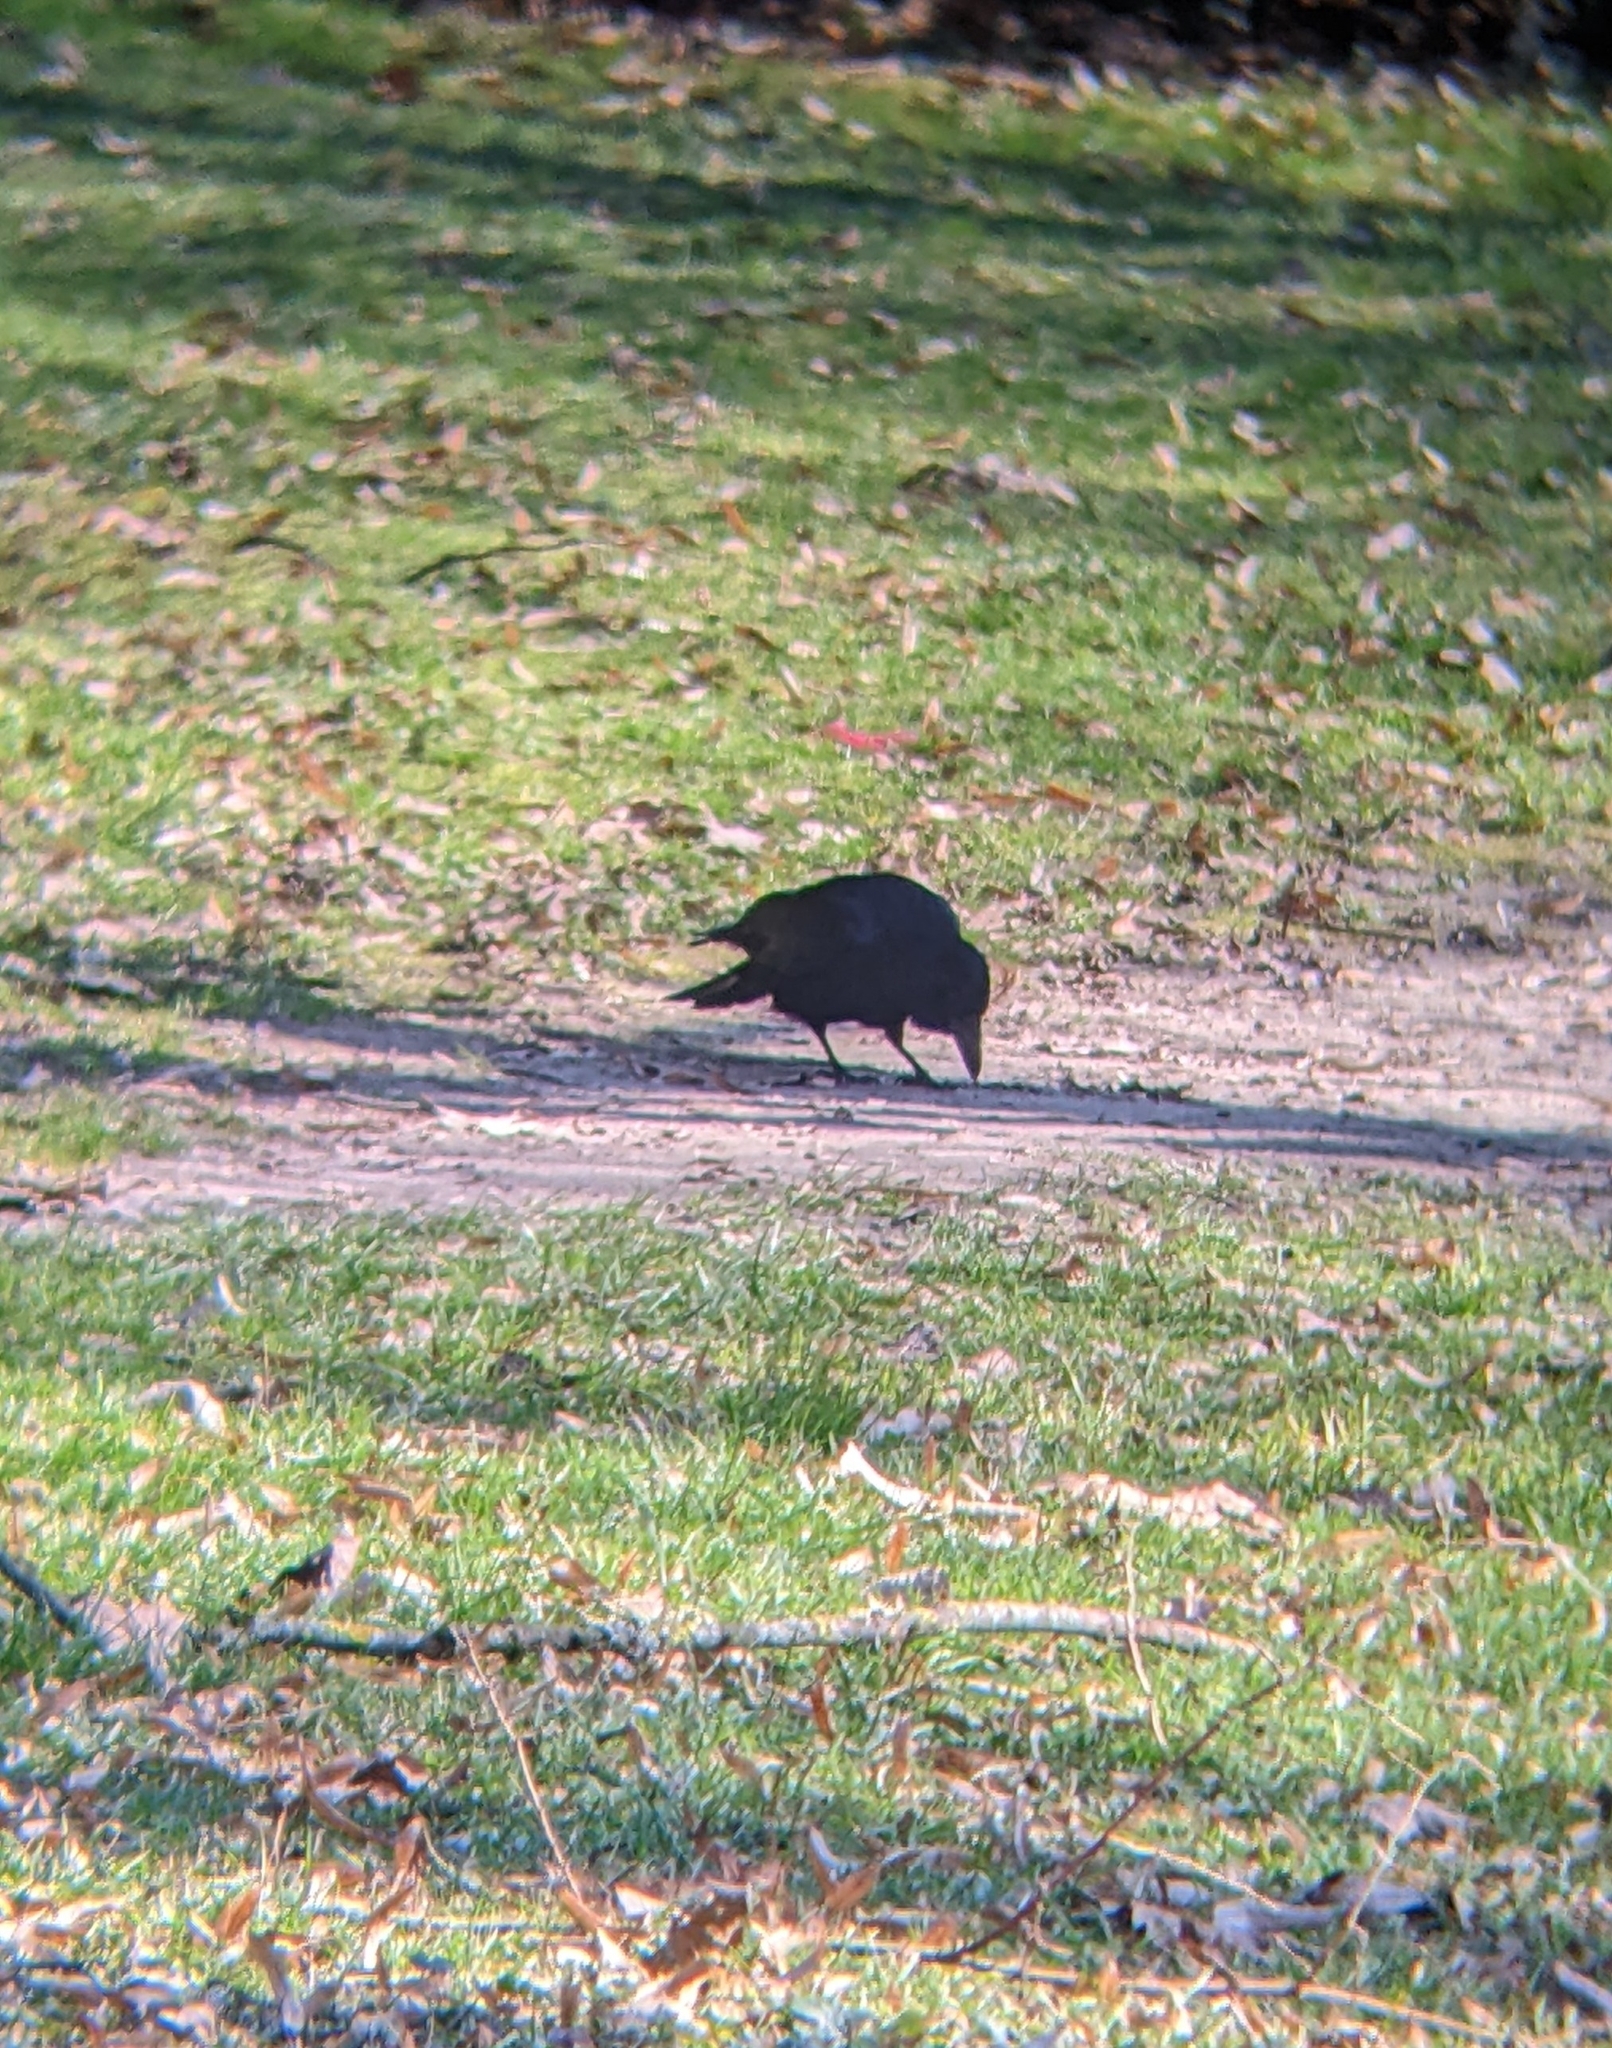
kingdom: Animalia
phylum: Chordata
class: Aves
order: Passeriformes
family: Corvidae
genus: Corvus
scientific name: Corvus corone
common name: Carrion crow
